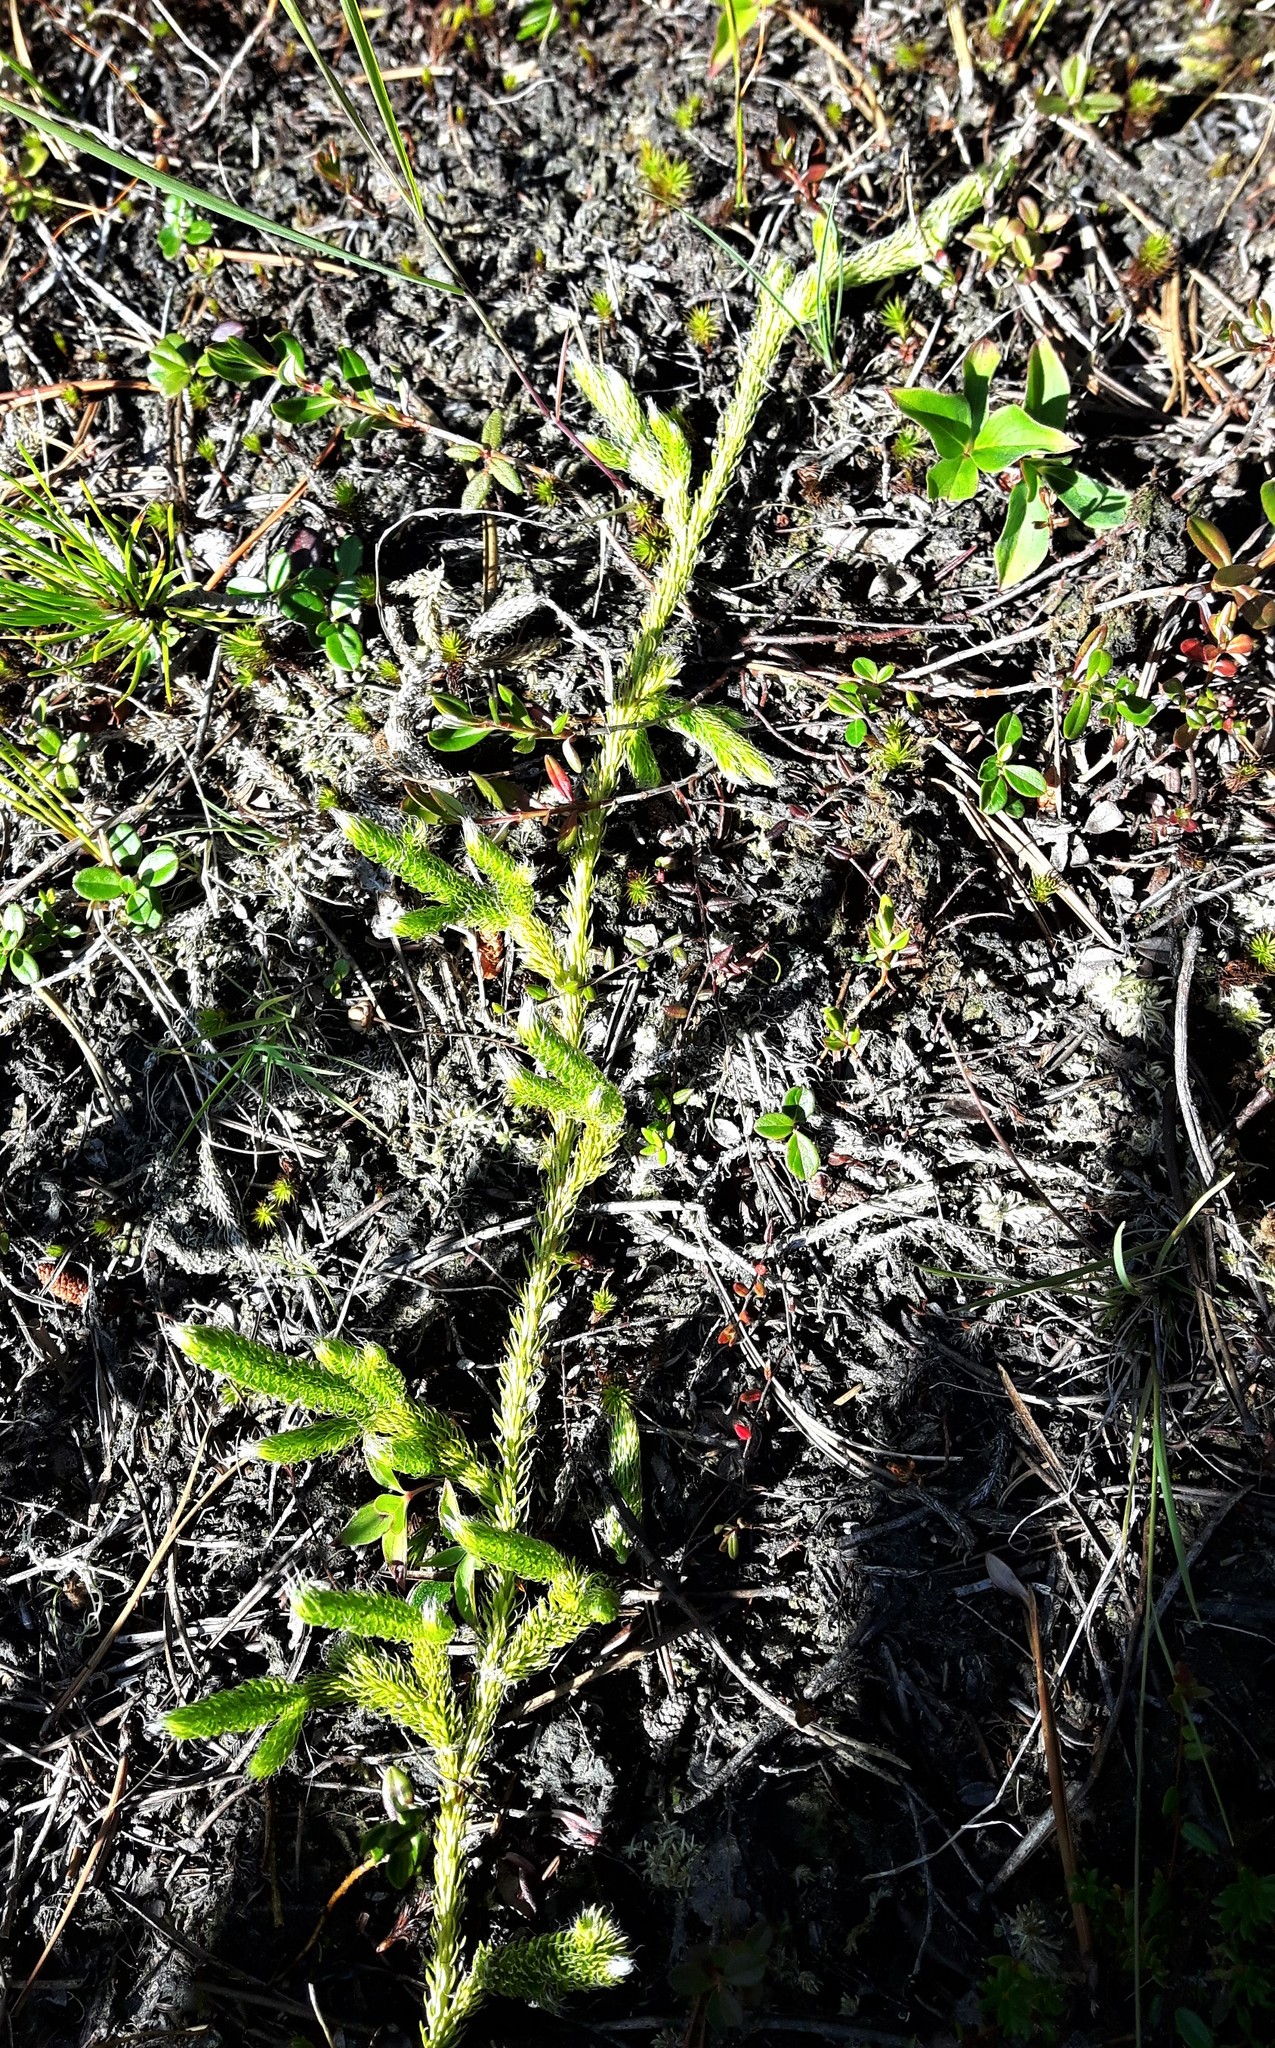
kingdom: Plantae
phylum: Tracheophyta
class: Lycopodiopsida
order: Lycopodiales
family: Lycopodiaceae
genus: Lycopodium
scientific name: Lycopodium lagopus
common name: One-cone clubmoss
